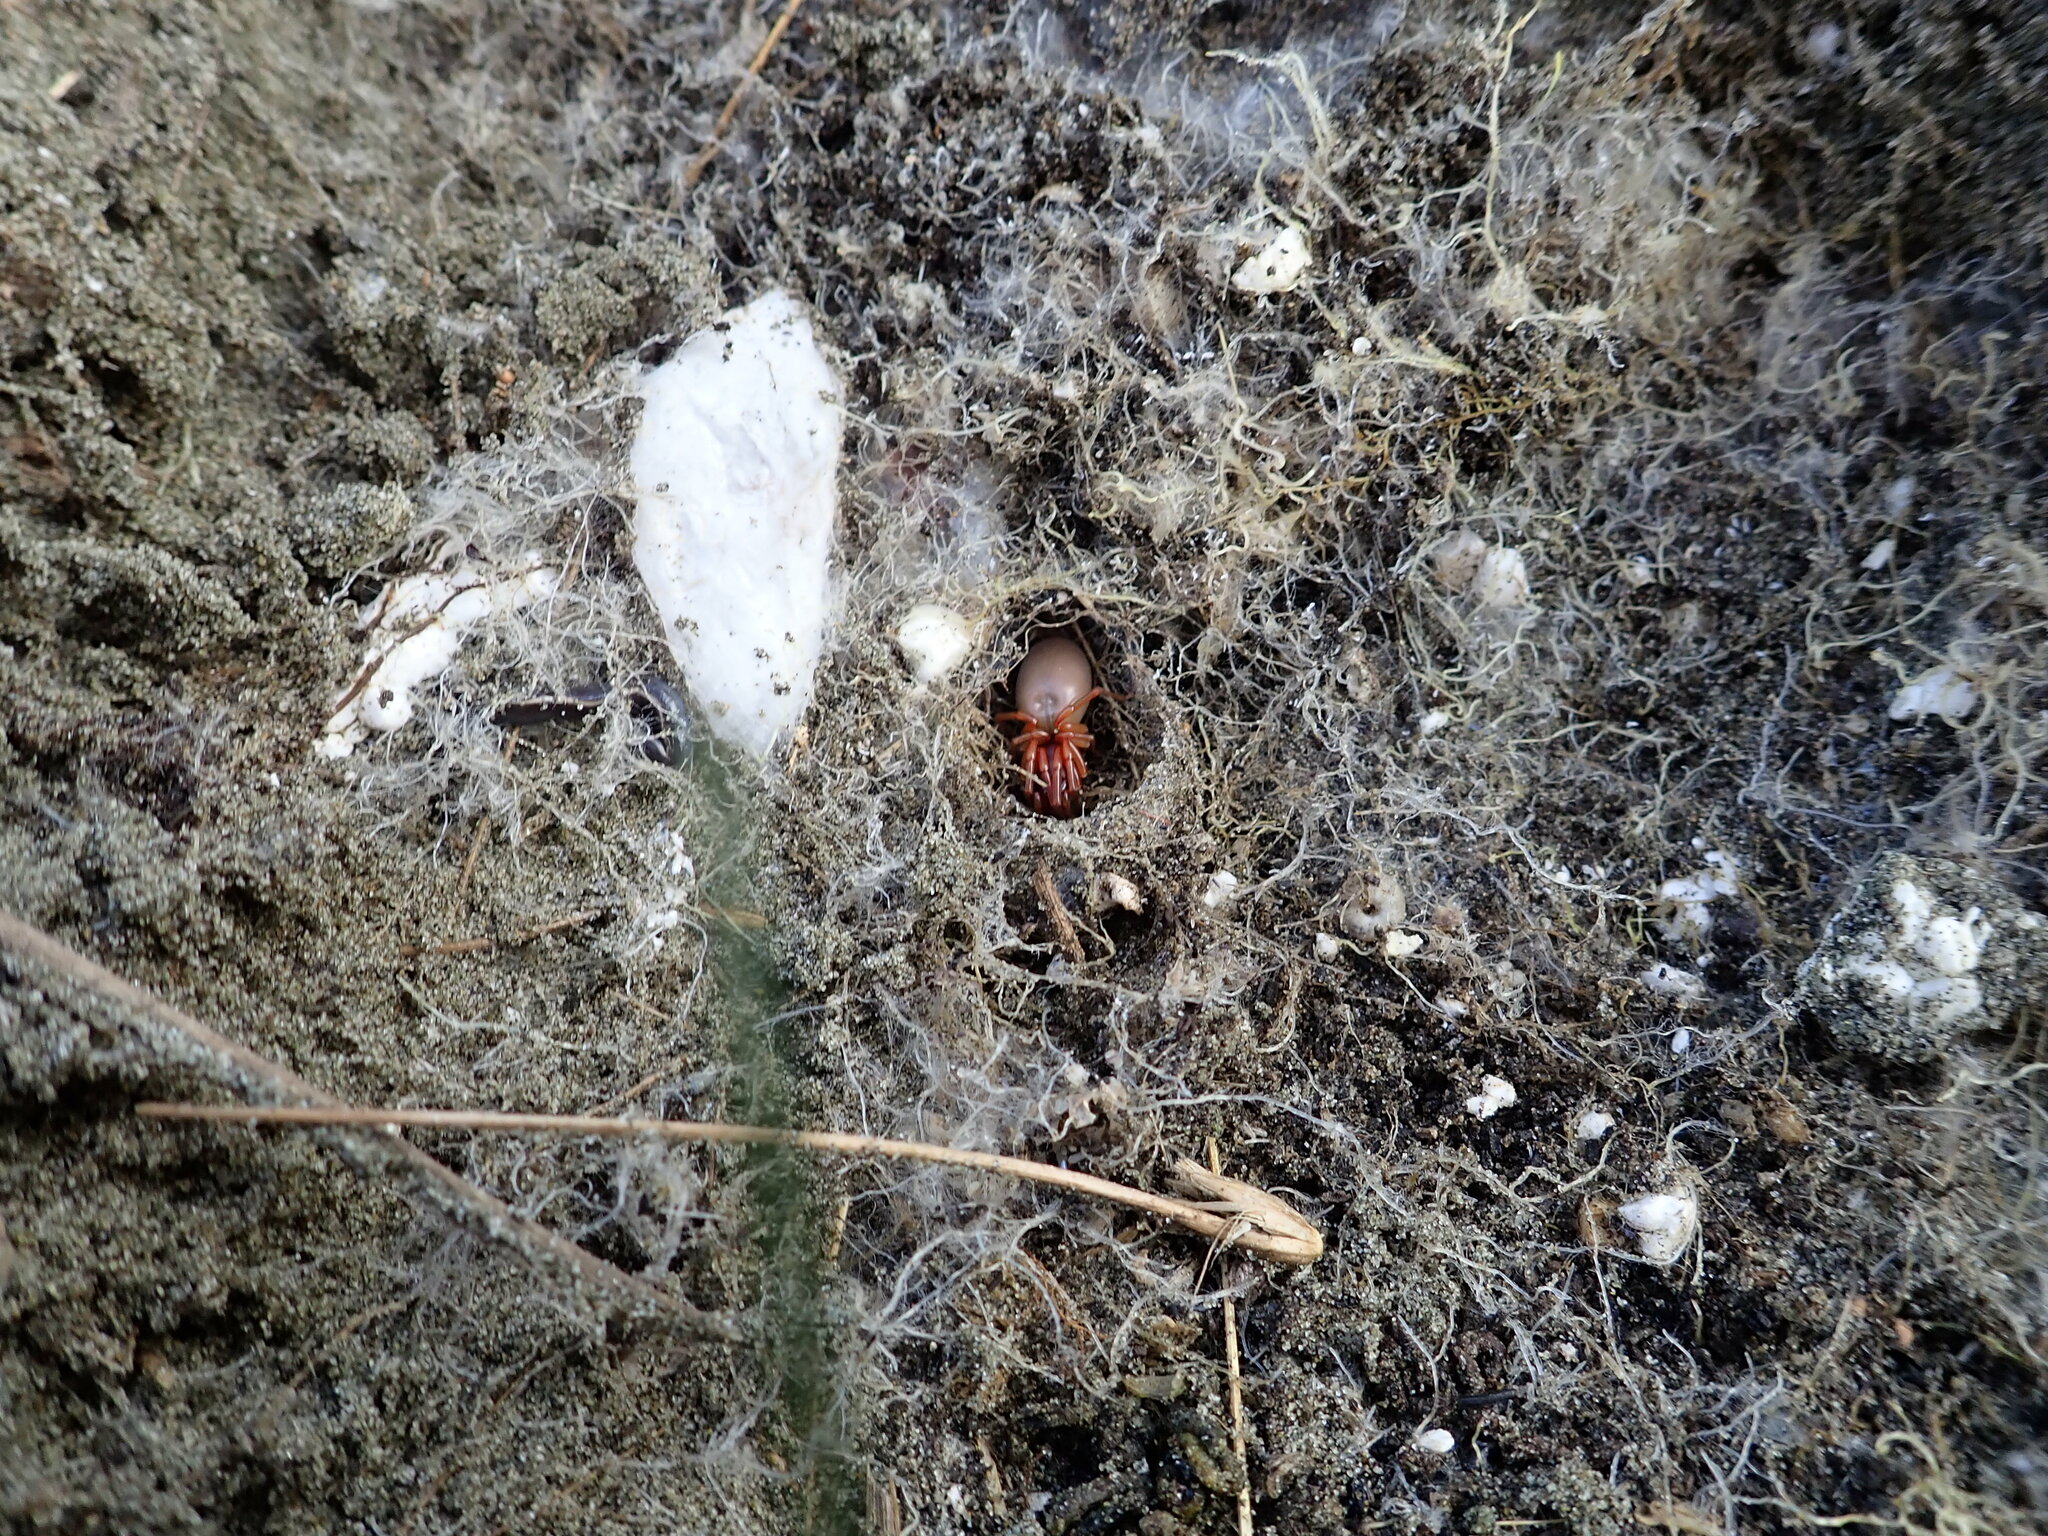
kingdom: Animalia
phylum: Arthropoda
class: Arachnida
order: Araneae
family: Dysderidae
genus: Dysdera
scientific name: Dysdera crocata
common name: Woodlouse spider
